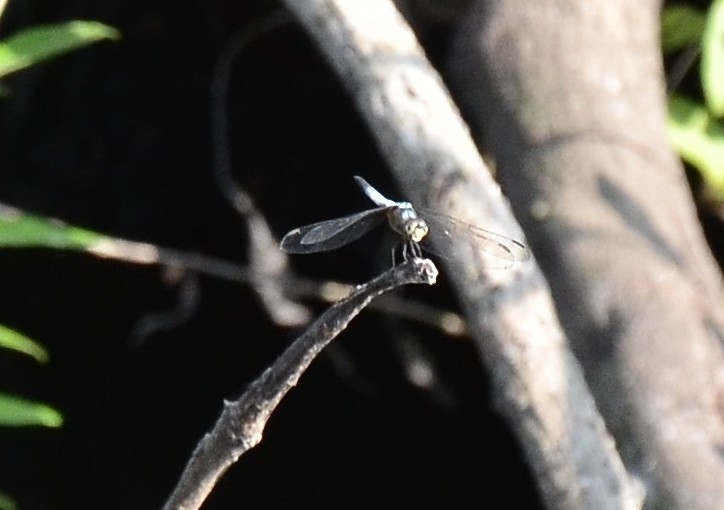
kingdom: Animalia
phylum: Arthropoda
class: Insecta
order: Odonata
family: Libellulidae
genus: Brachydiplax
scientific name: Brachydiplax chalybea
